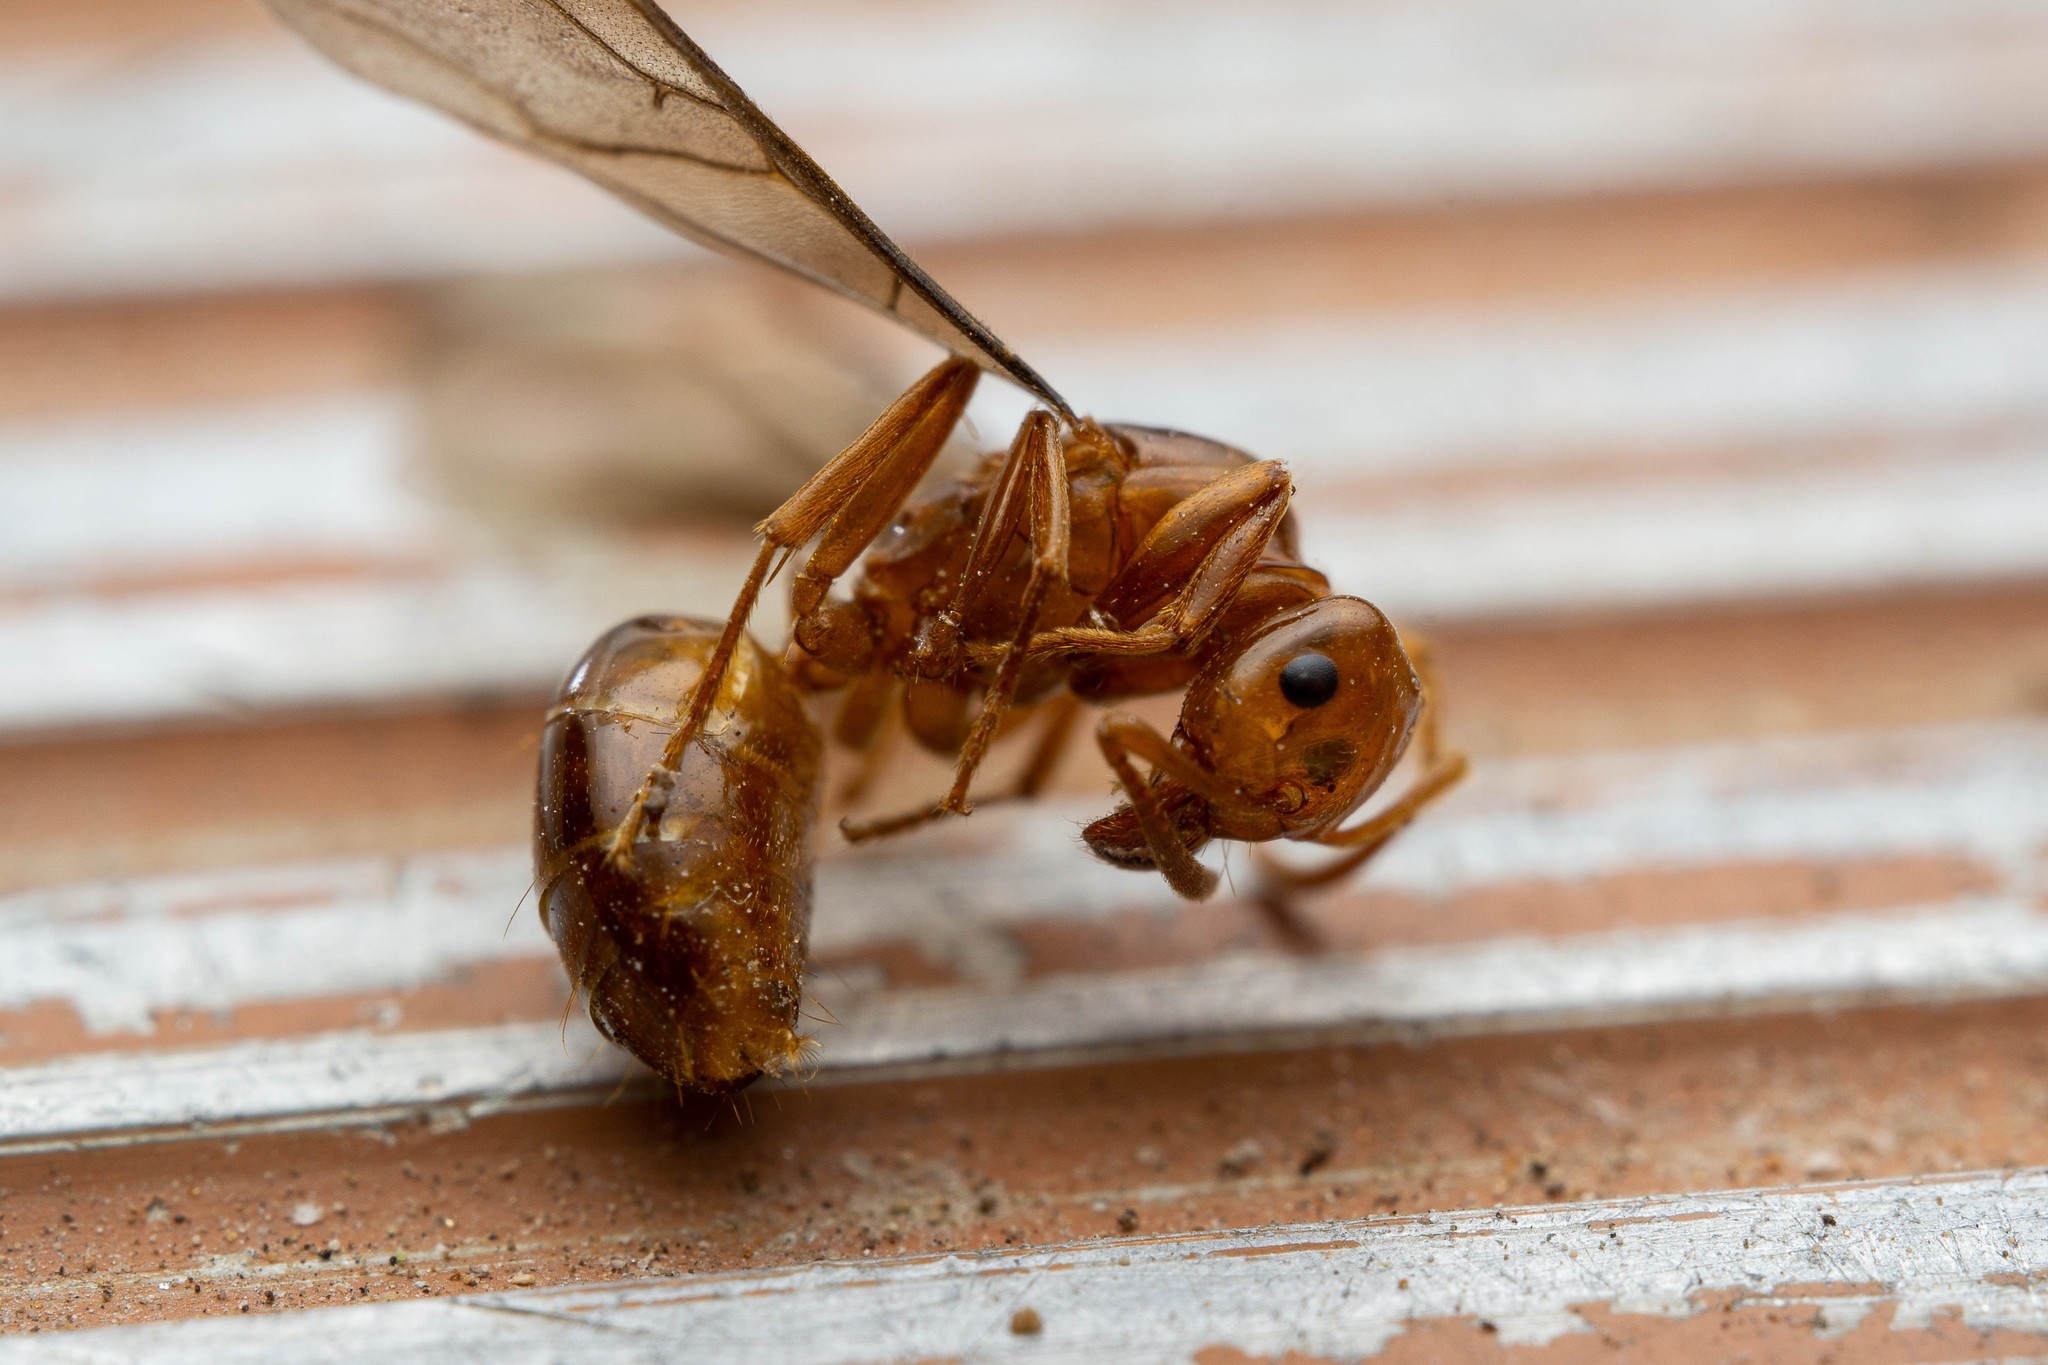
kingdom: Animalia
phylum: Arthropoda
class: Insecta
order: Hymenoptera
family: Formicidae
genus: Lasius
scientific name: Lasius arizonicus
